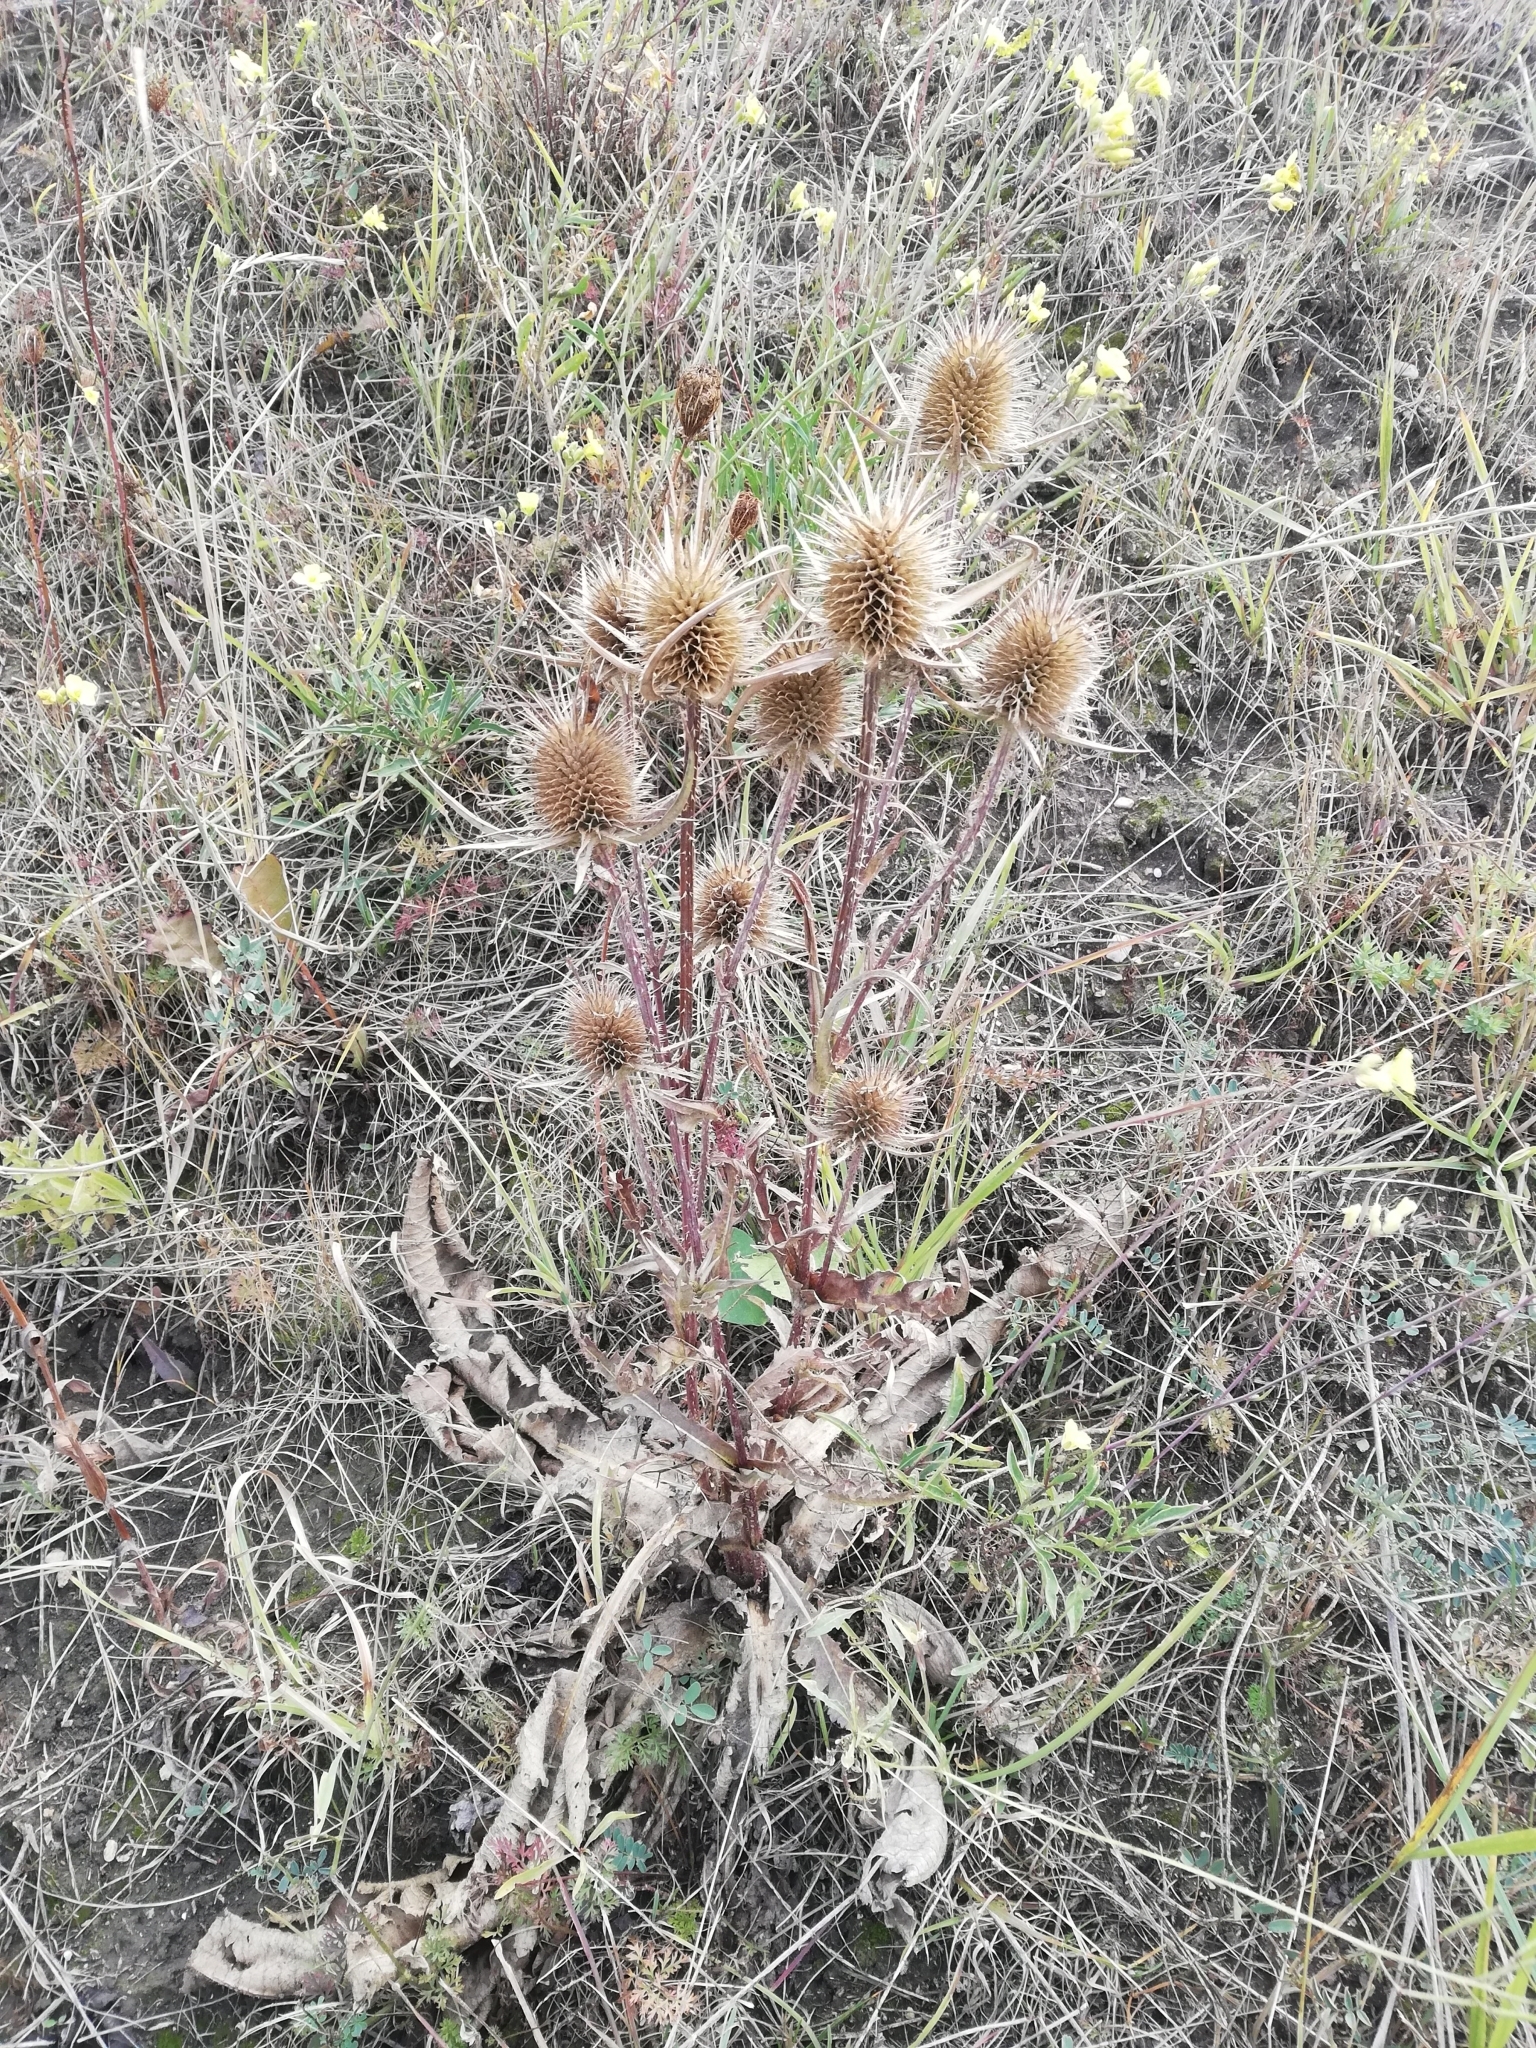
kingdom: Plantae
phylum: Tracheophyta
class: Magnoliopsida
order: Dipsacales
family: Caprifoliaceae
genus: Dipsacus
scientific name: Dipsacus laciniatus
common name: Cut-leaved teasel
